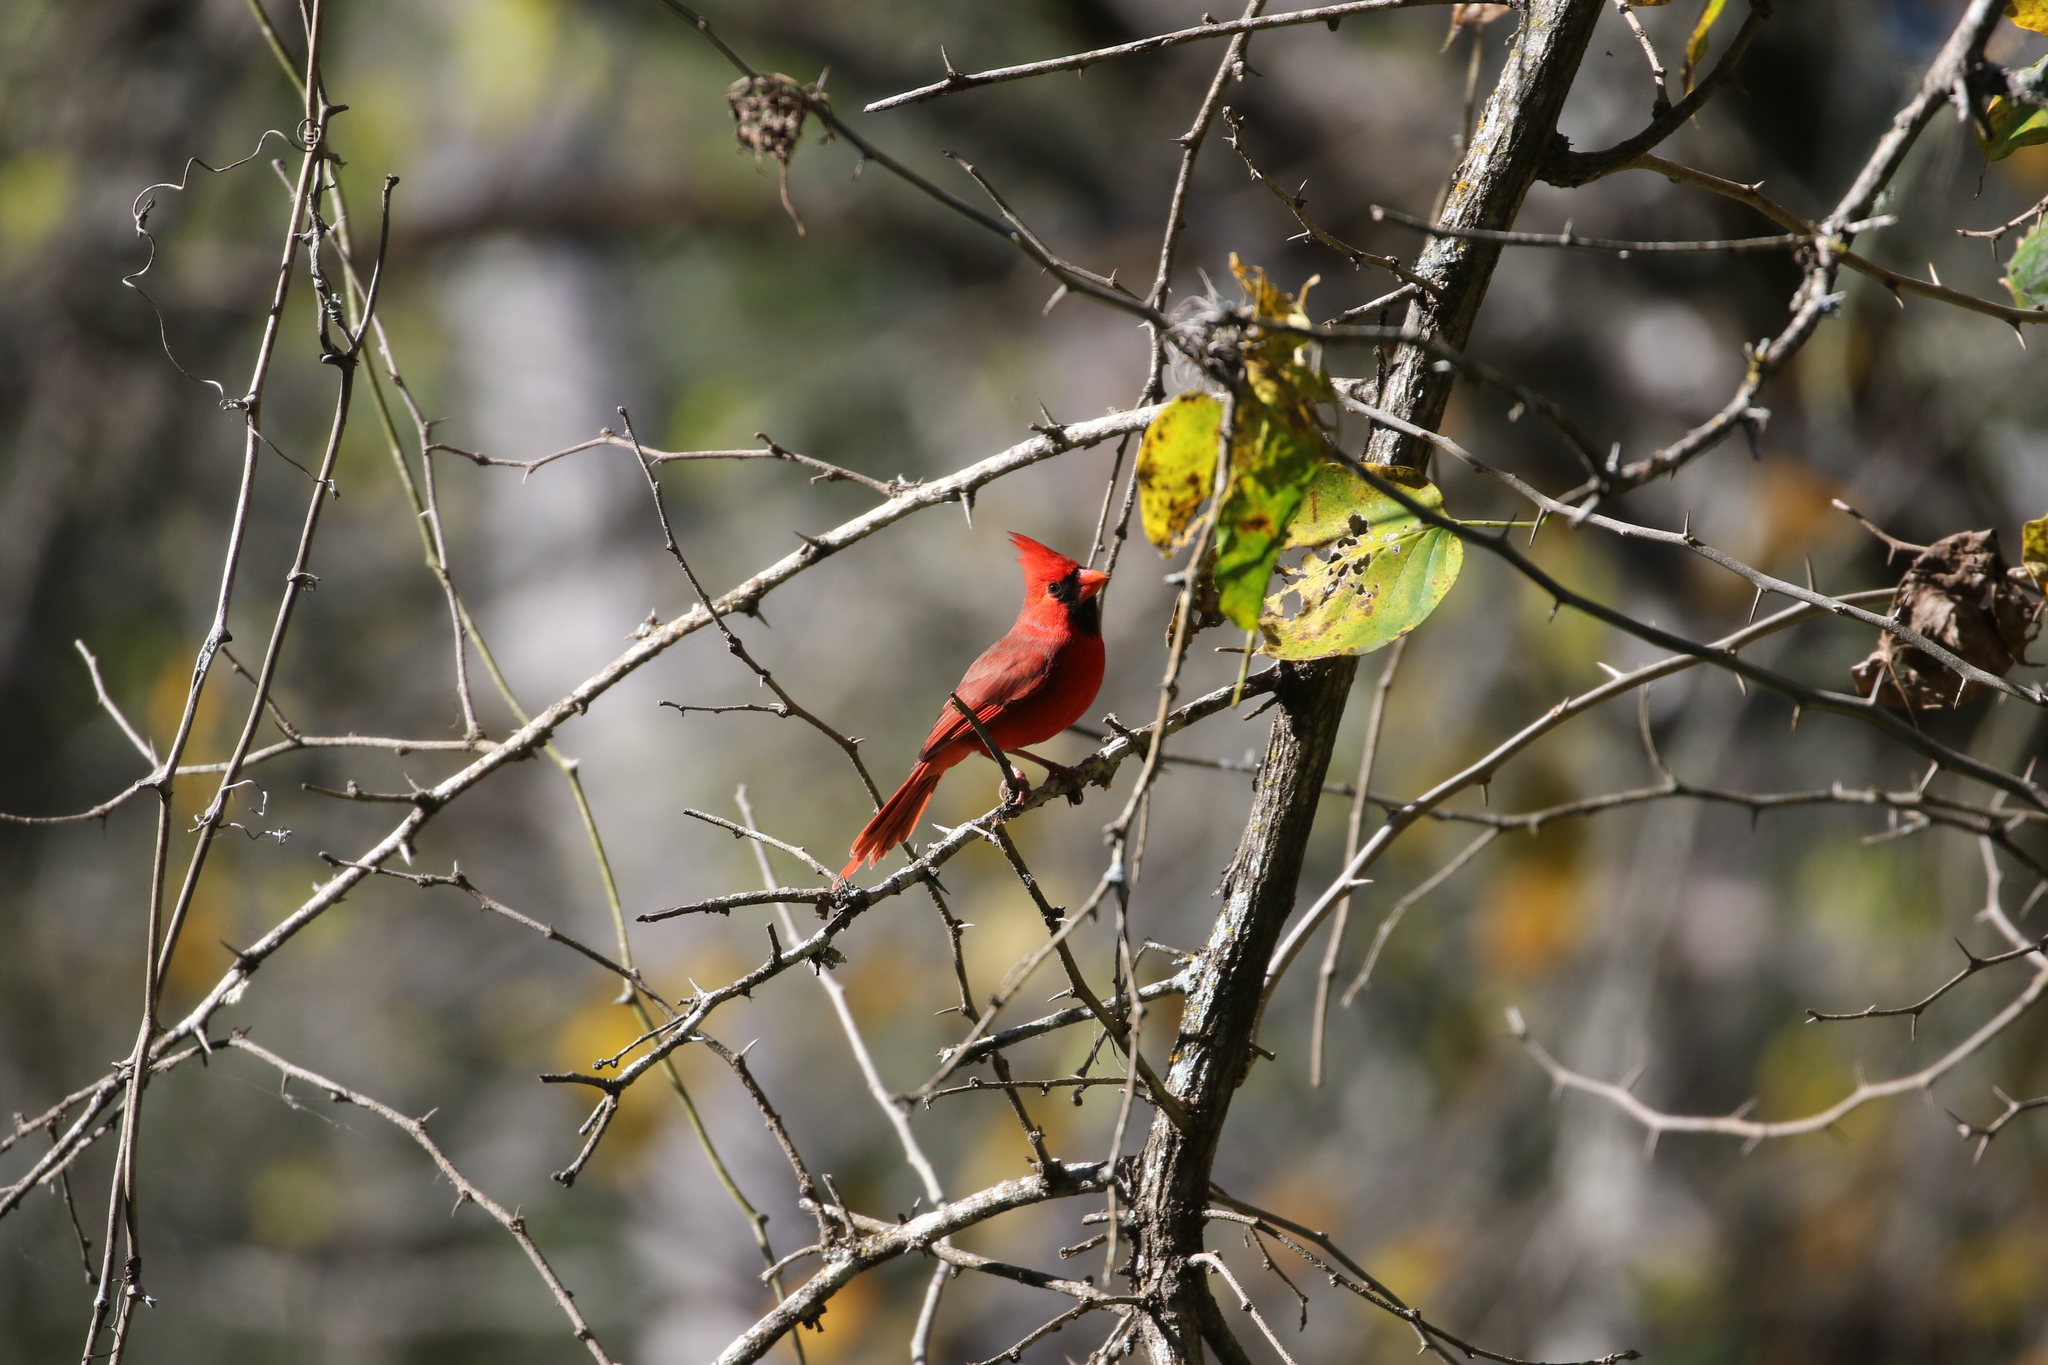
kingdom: Animalia
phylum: Chordata
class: Aves
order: Passeriformes
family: Cardinalidae
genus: Cardinalis
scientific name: Cardinalis cardinalis
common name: Northern cardinal
